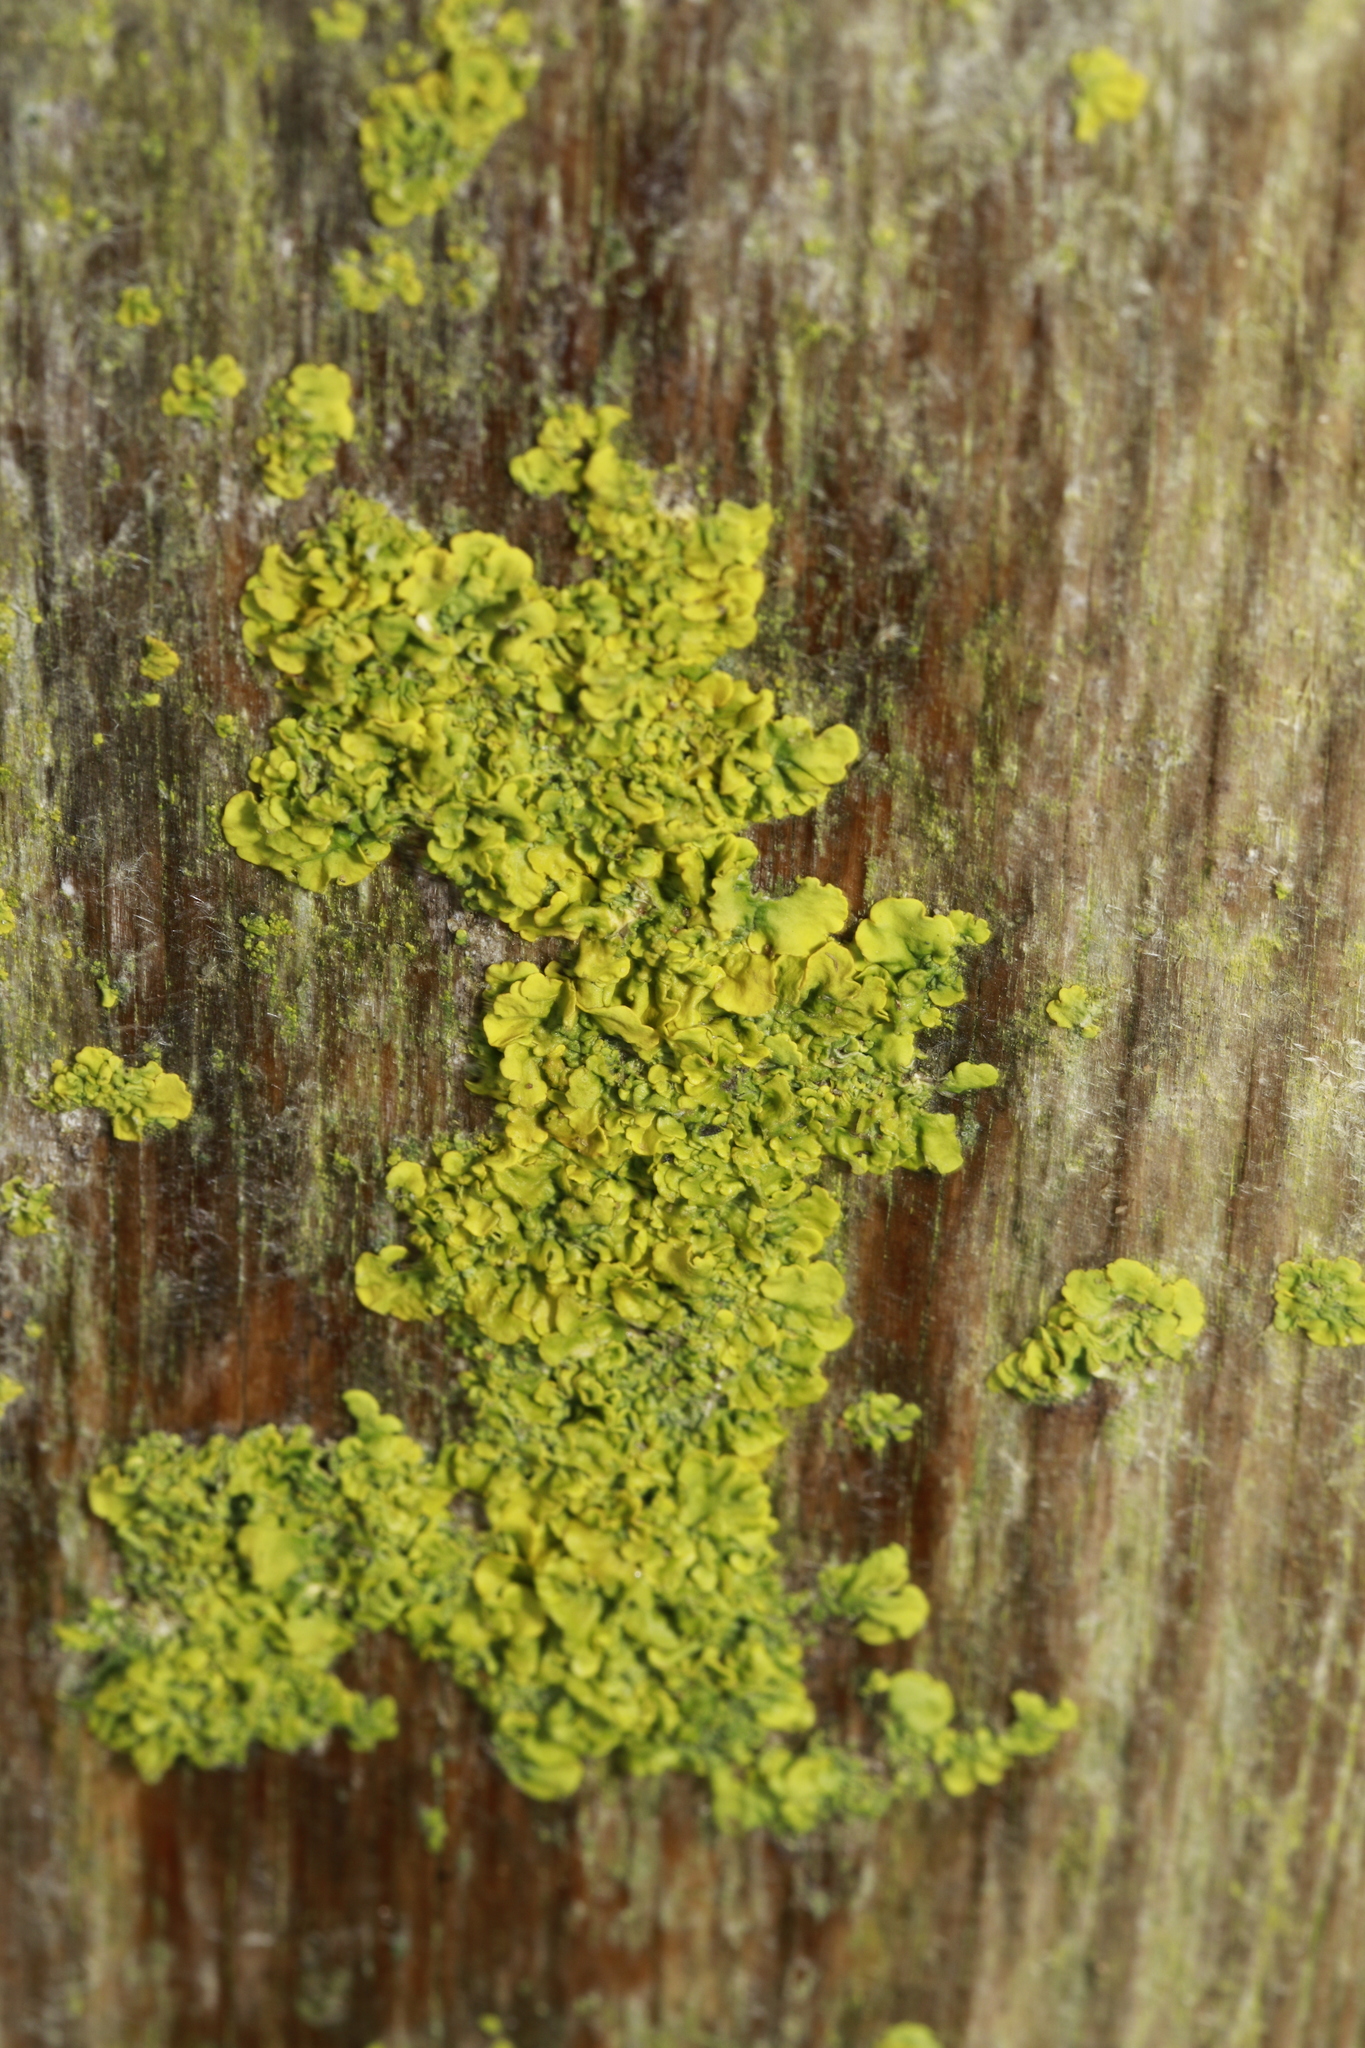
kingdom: Fungi
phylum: Ascomycota
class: Lecanoromycetes
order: Teloschistales
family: Teloschistaceae
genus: Xanthoria
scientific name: Xanthoria parietina
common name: Common orange lichen
